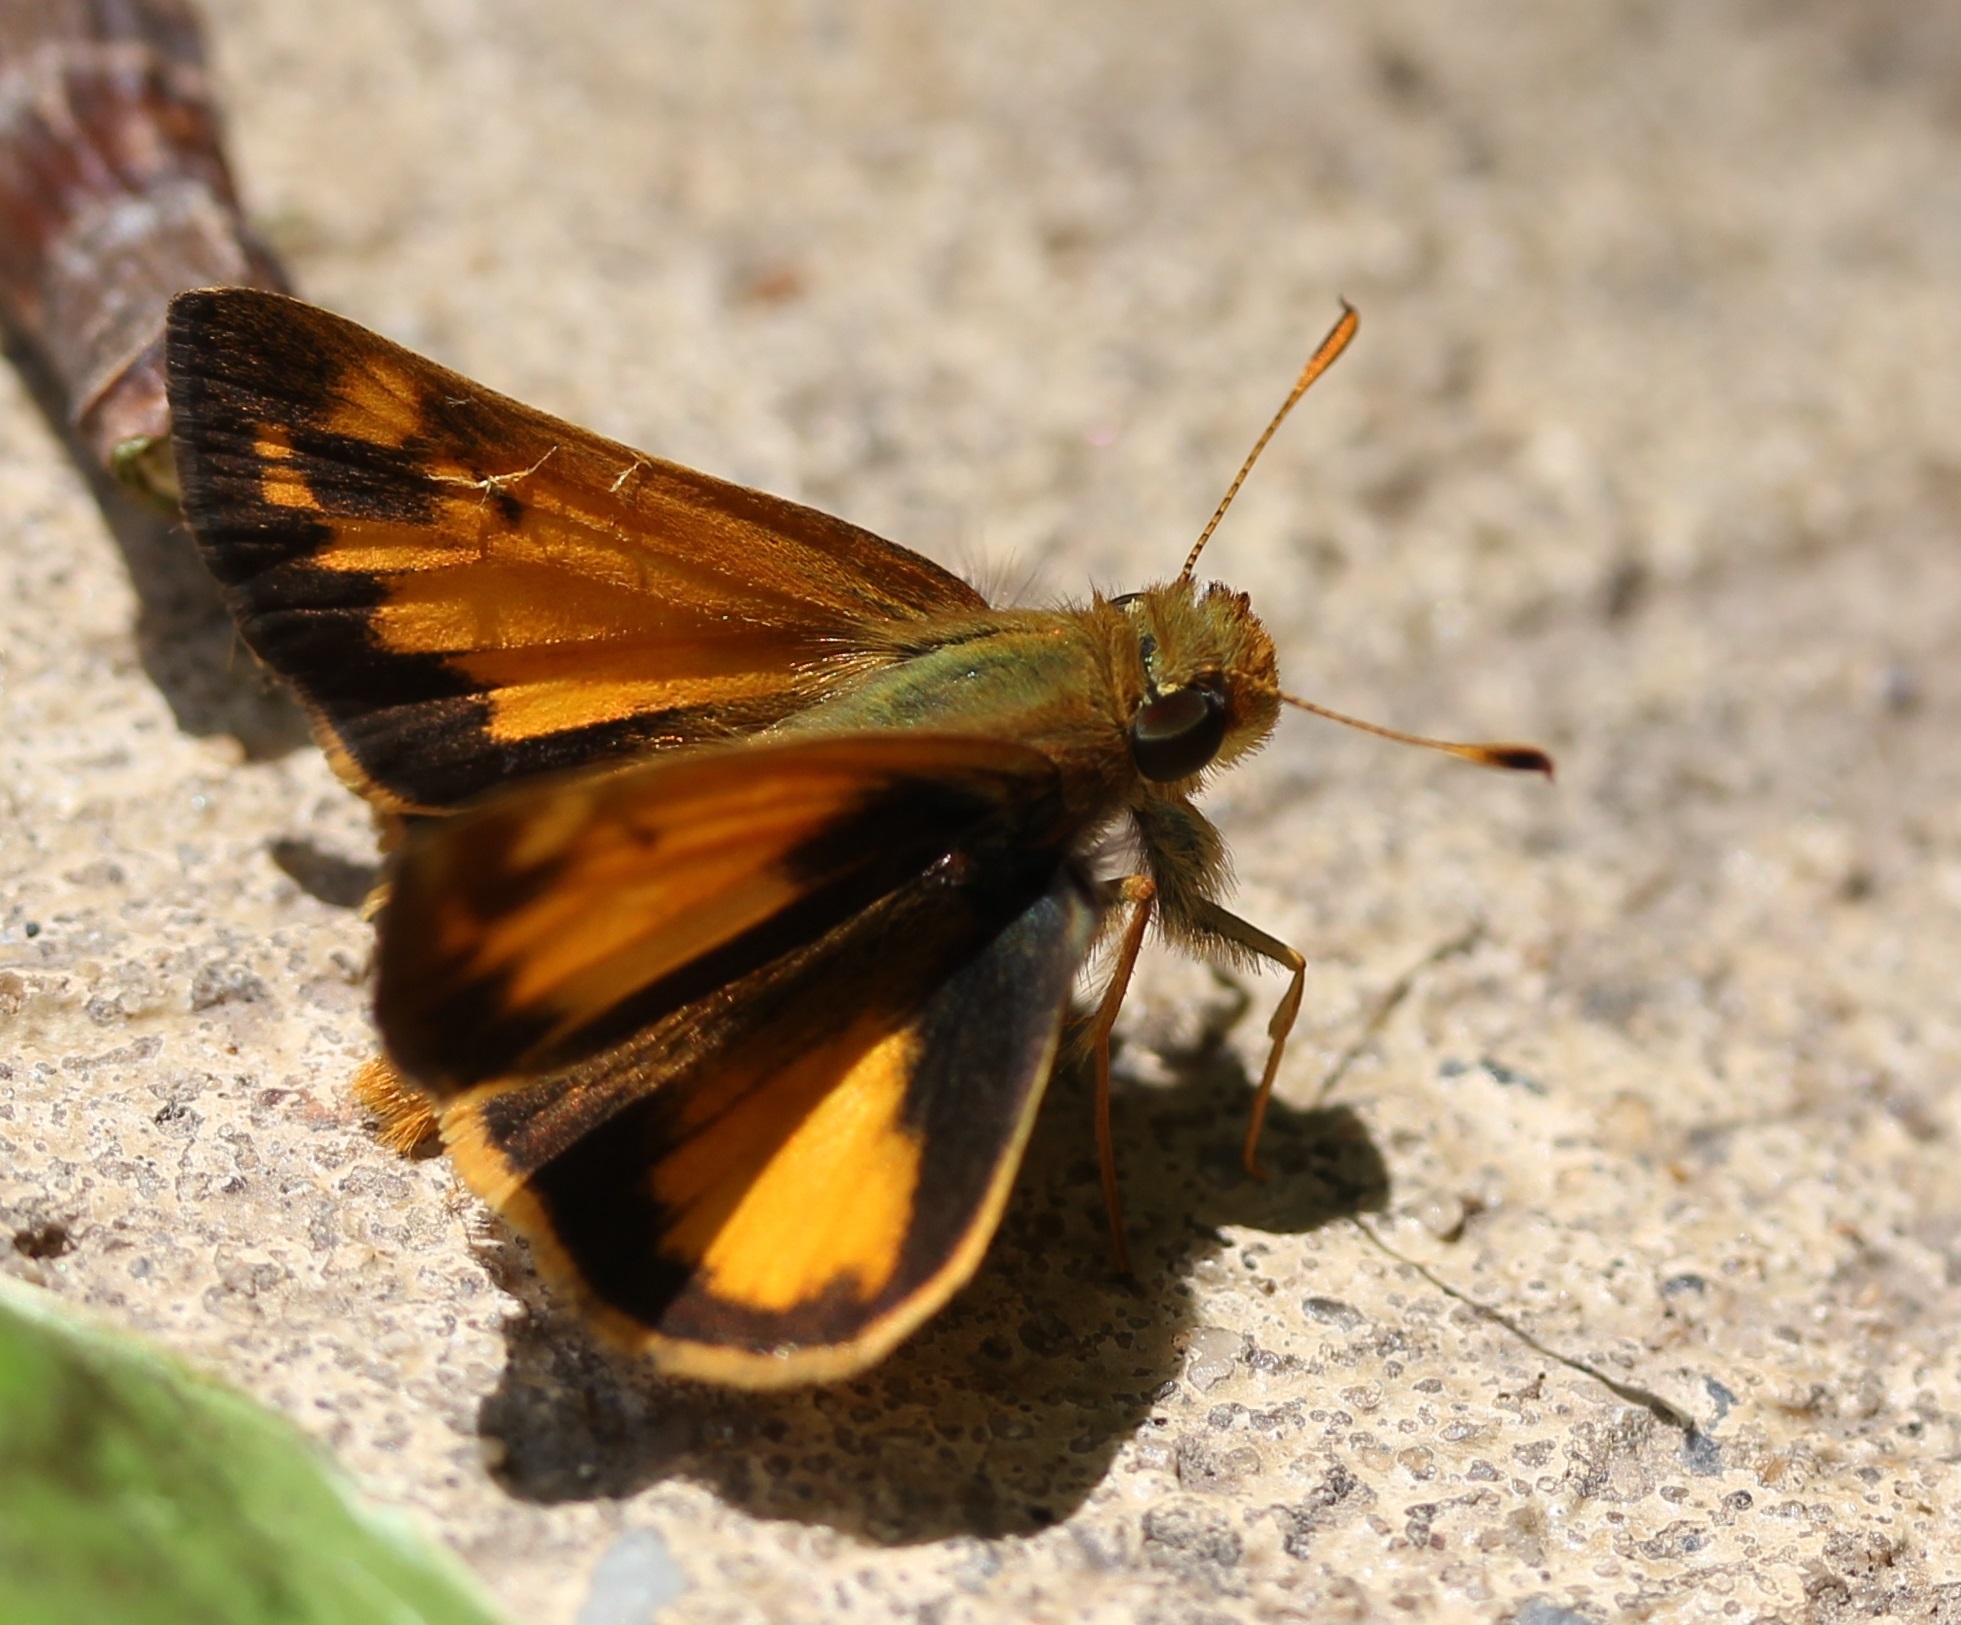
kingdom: Animalia
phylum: Arthropoda
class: Insecta
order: Lepidoptera
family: Hesperiidae
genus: Lon
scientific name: Lon zabulon
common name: Zabulon skipper
